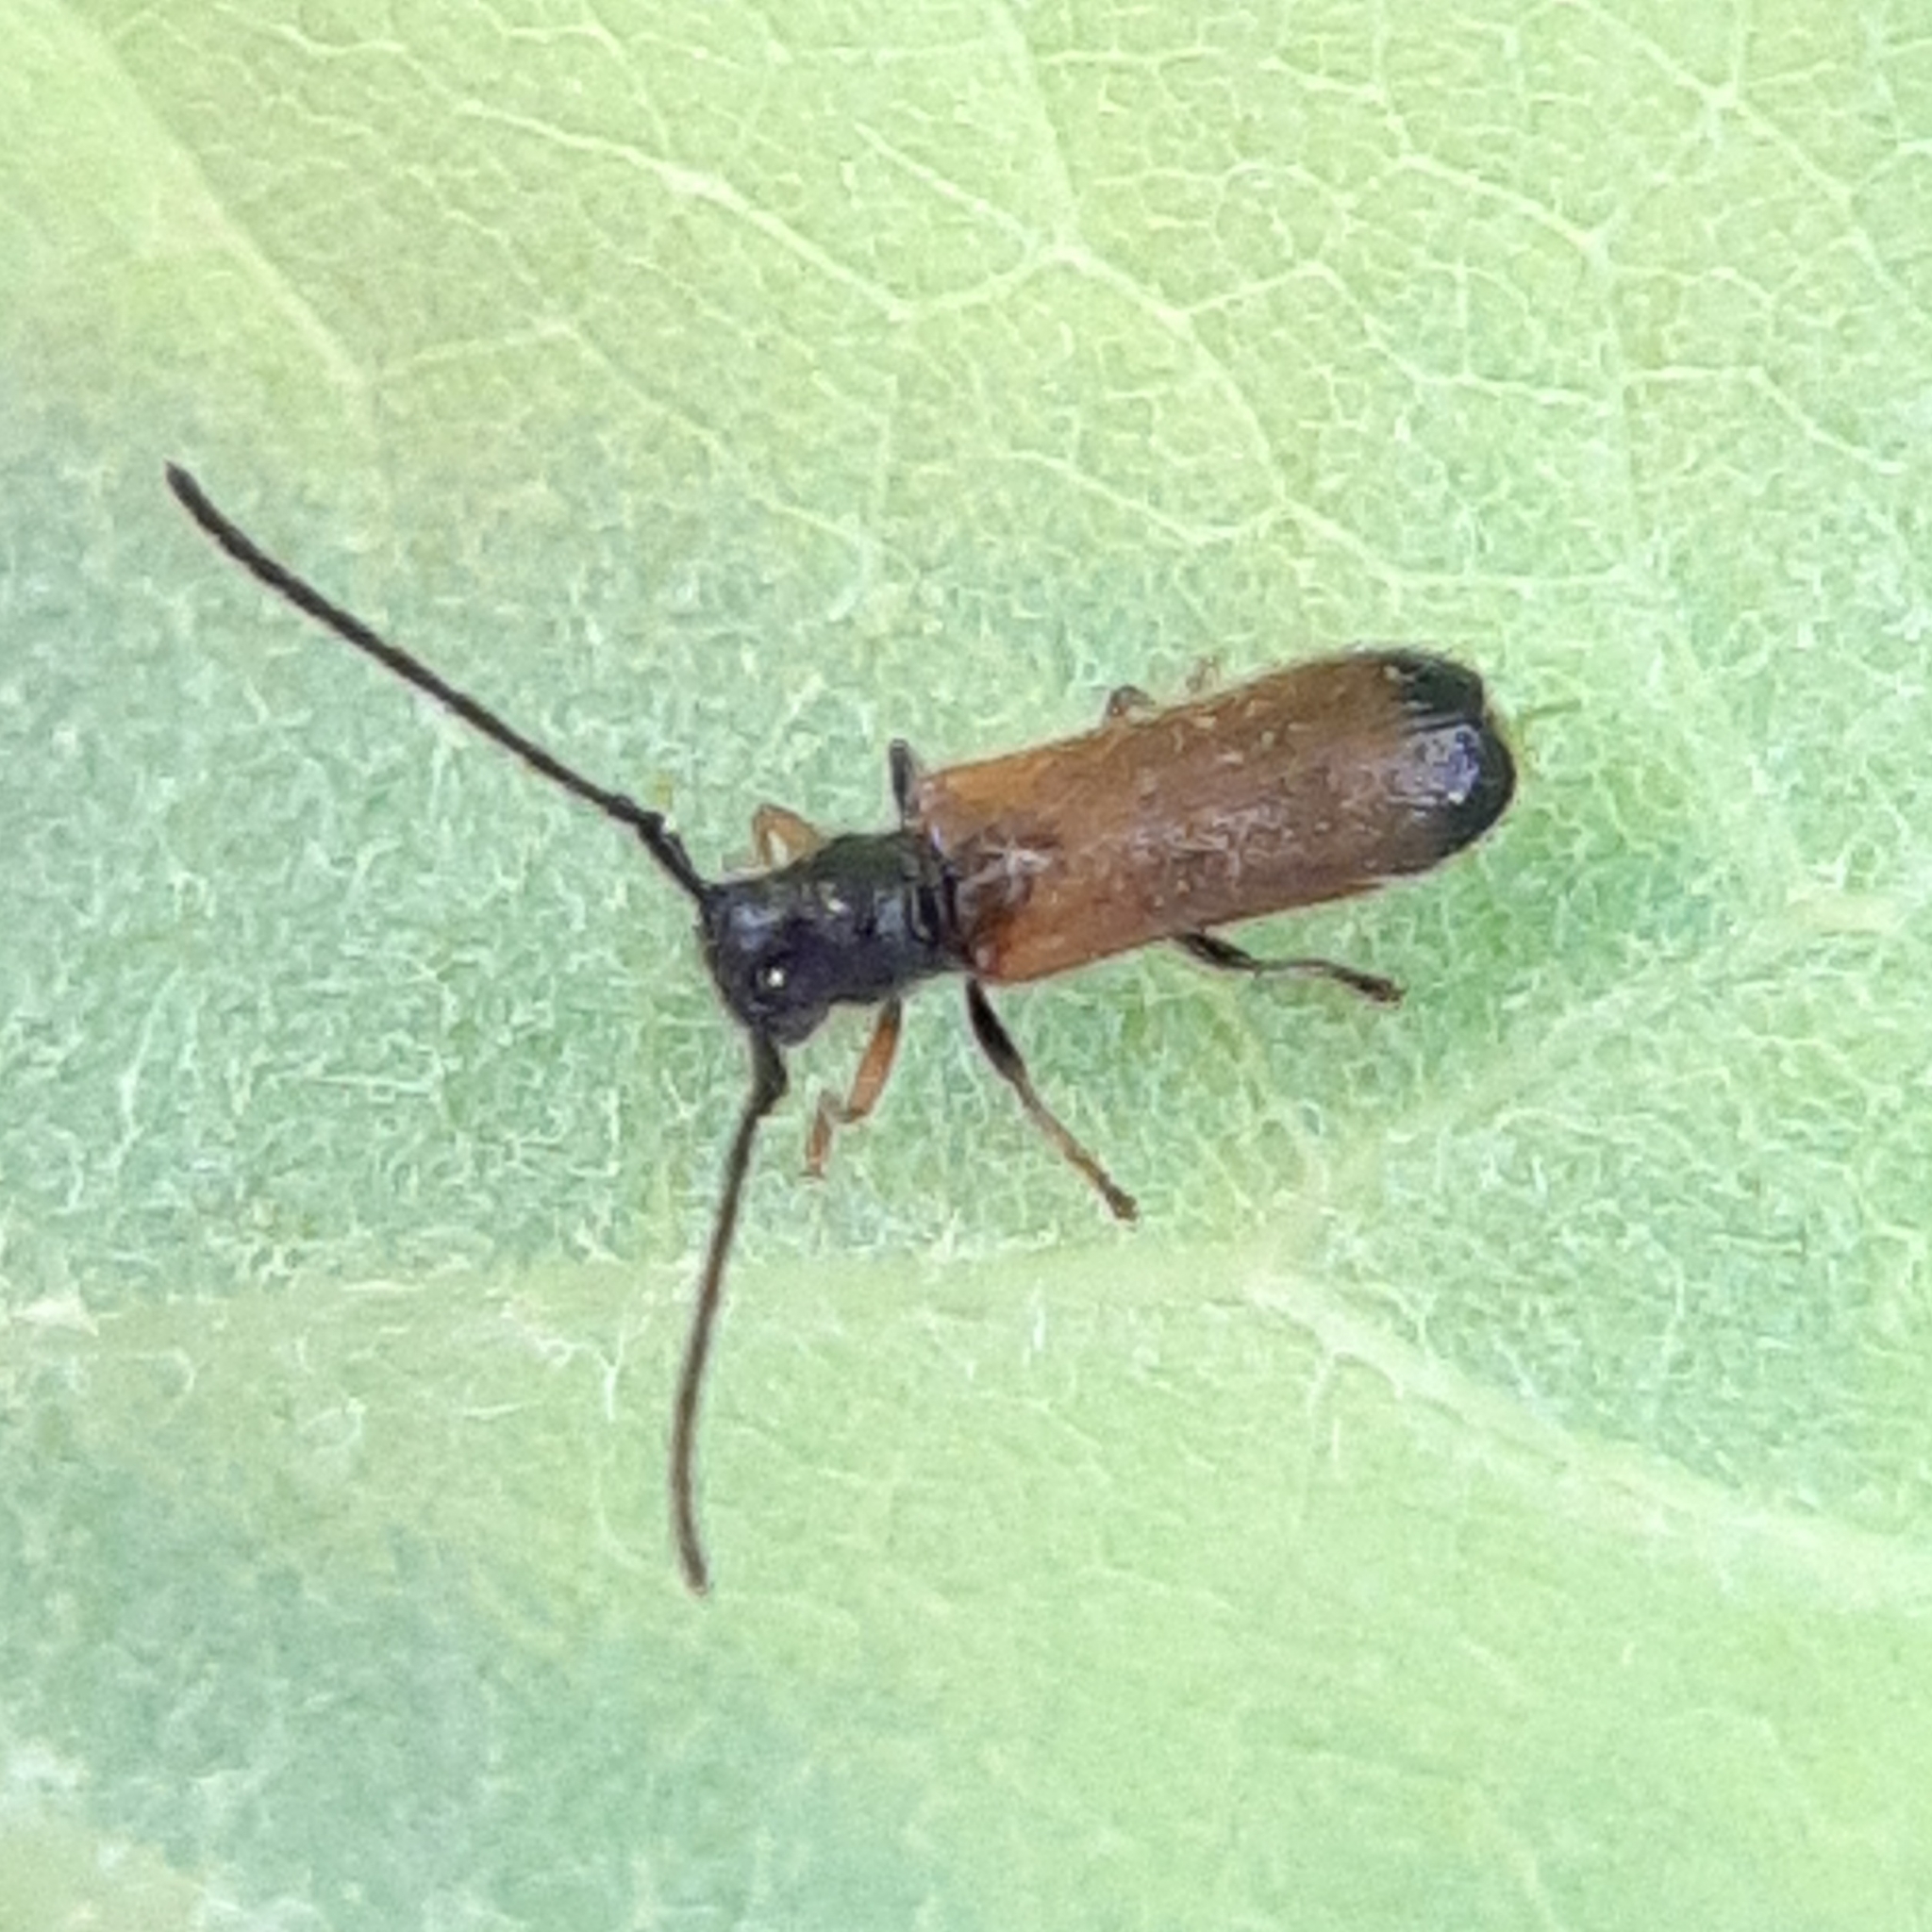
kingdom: Animalia
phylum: Arthropoda
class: Insecta
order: Coleoptera
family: Cerambycidae
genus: Tetrops
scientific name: Tetrops praeustus
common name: Plum beetle
